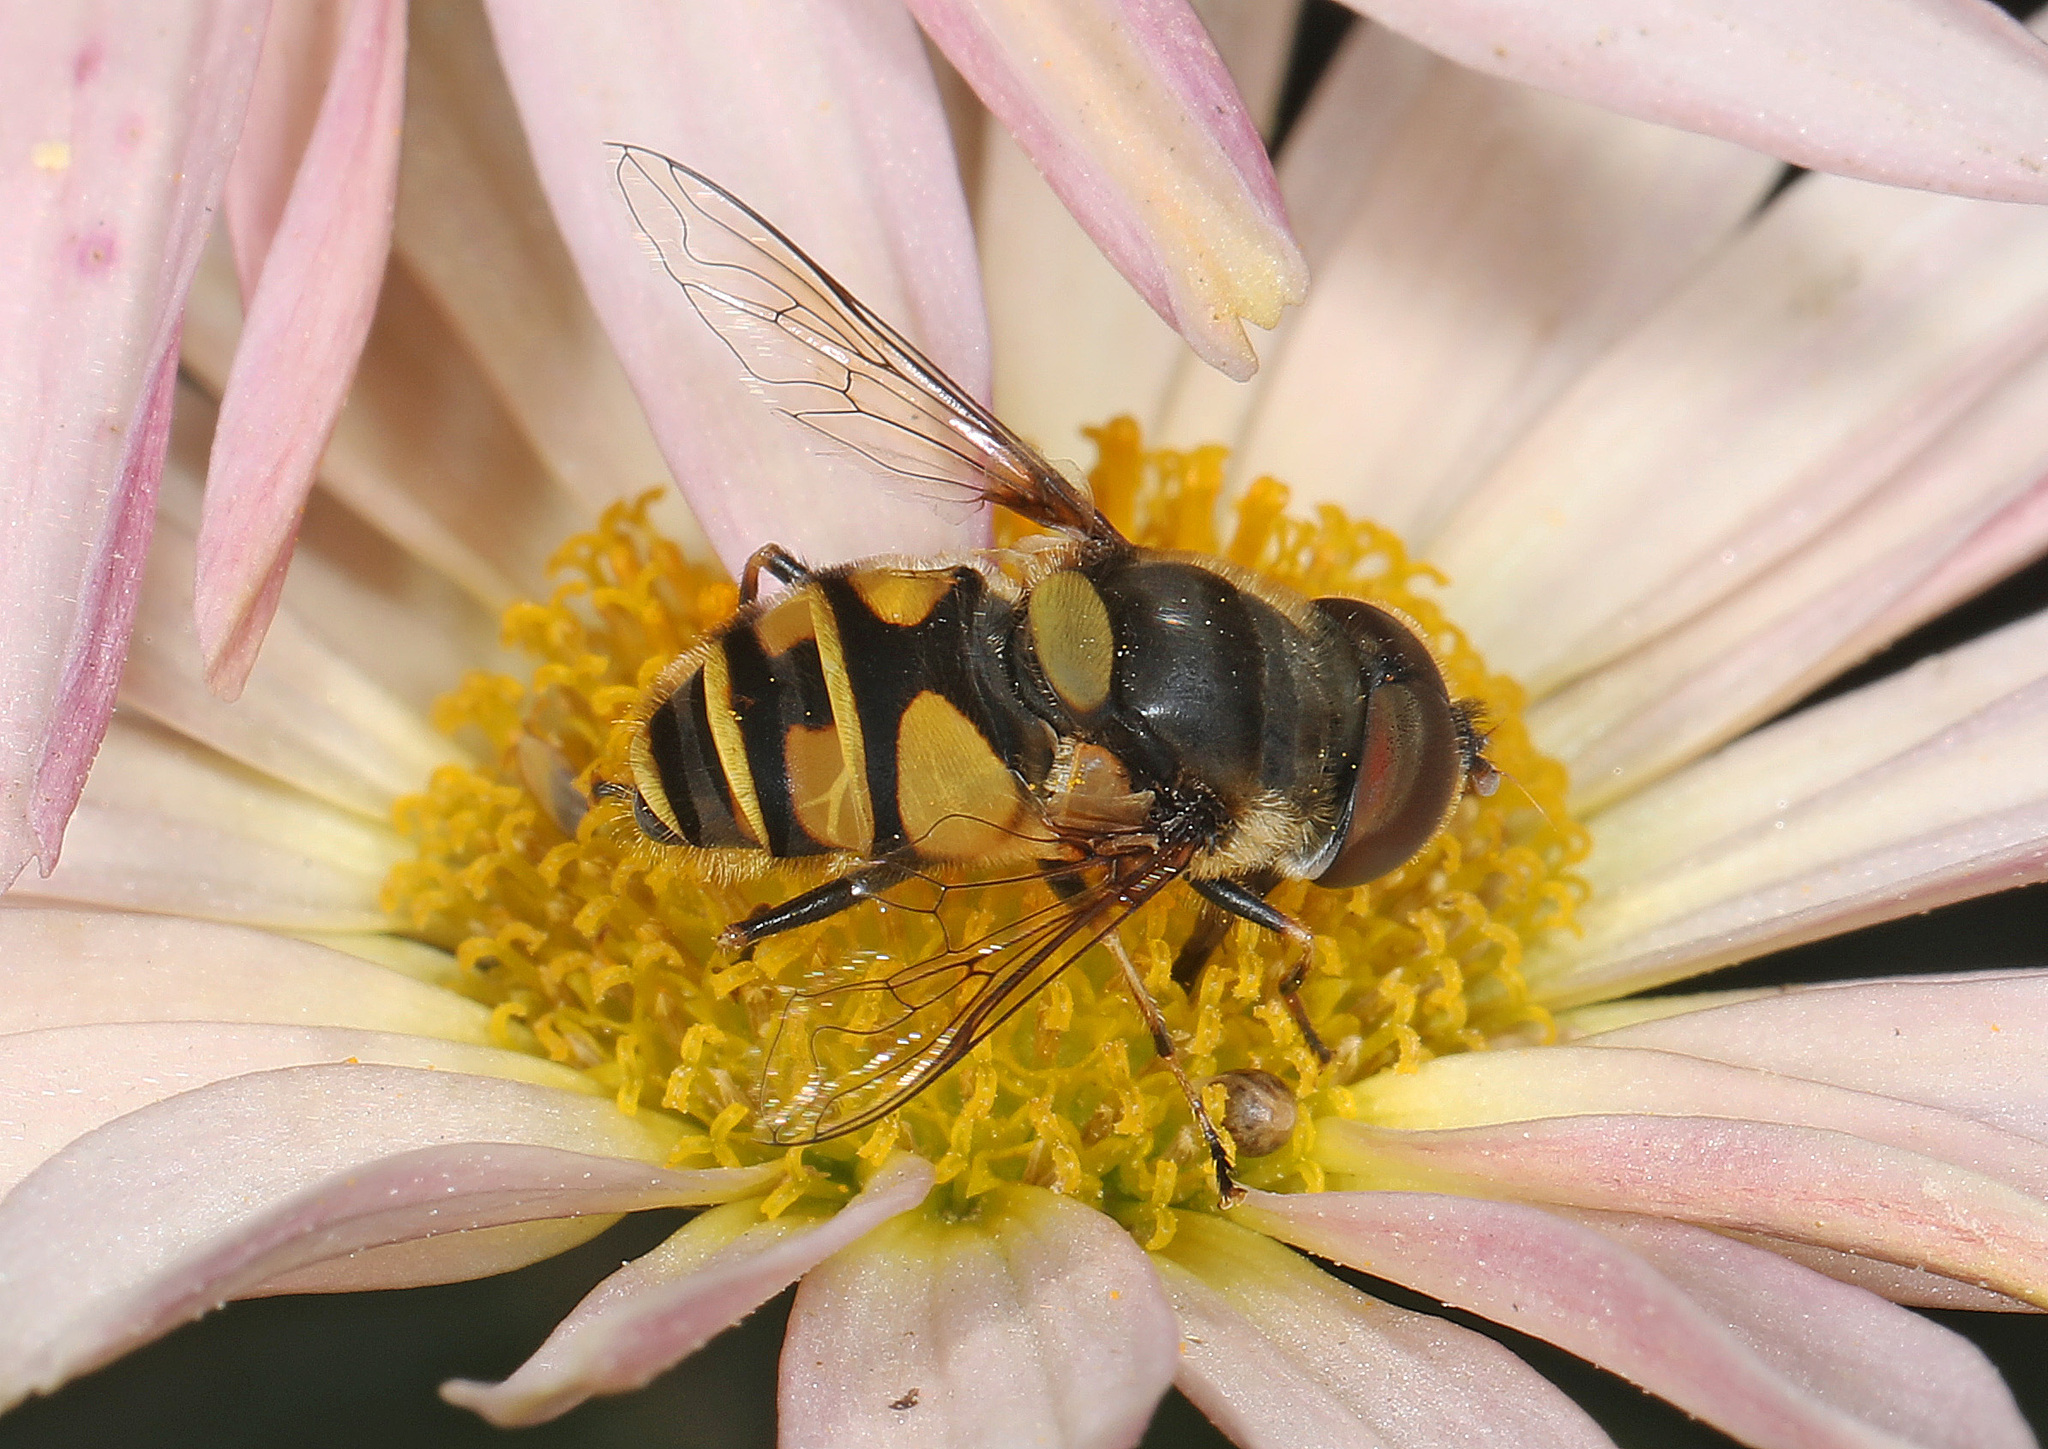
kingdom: Animalia
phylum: Arthropoda
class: Insecta
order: Diptera
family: Syrphidae
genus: Eristalis
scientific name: Eristalis transversa
